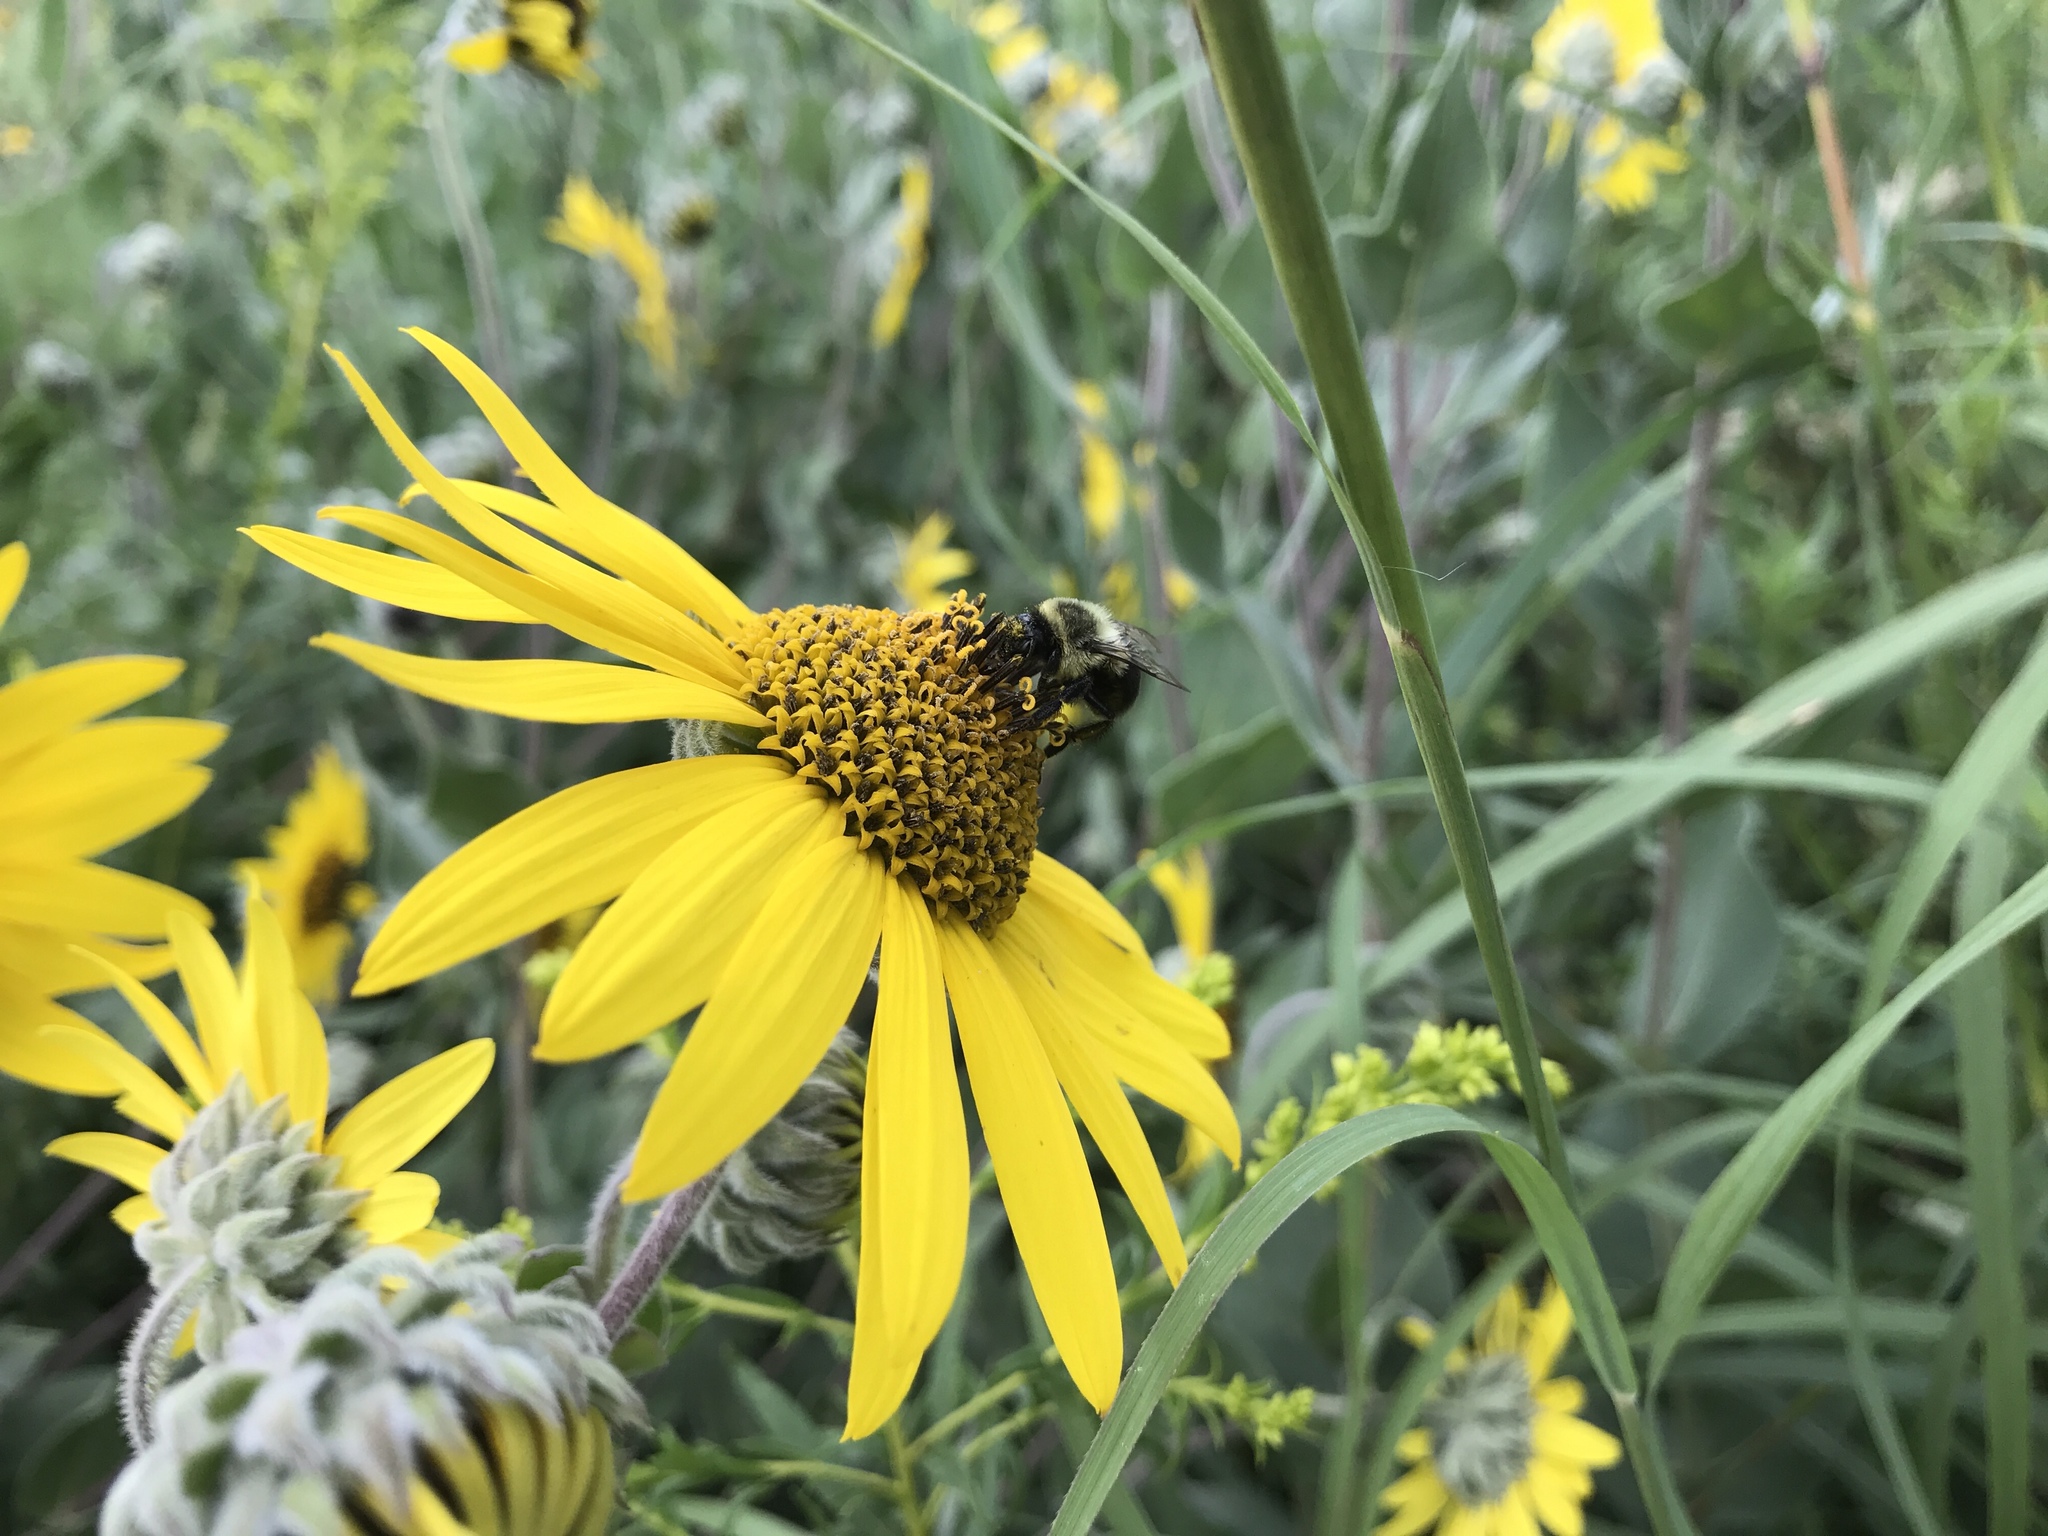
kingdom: Animalia
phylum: Arthropoda
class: Insecta
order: Hymenoptera
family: Apidae
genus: Bombus
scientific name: Bombus impatiens
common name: Common eastern bumble bee
